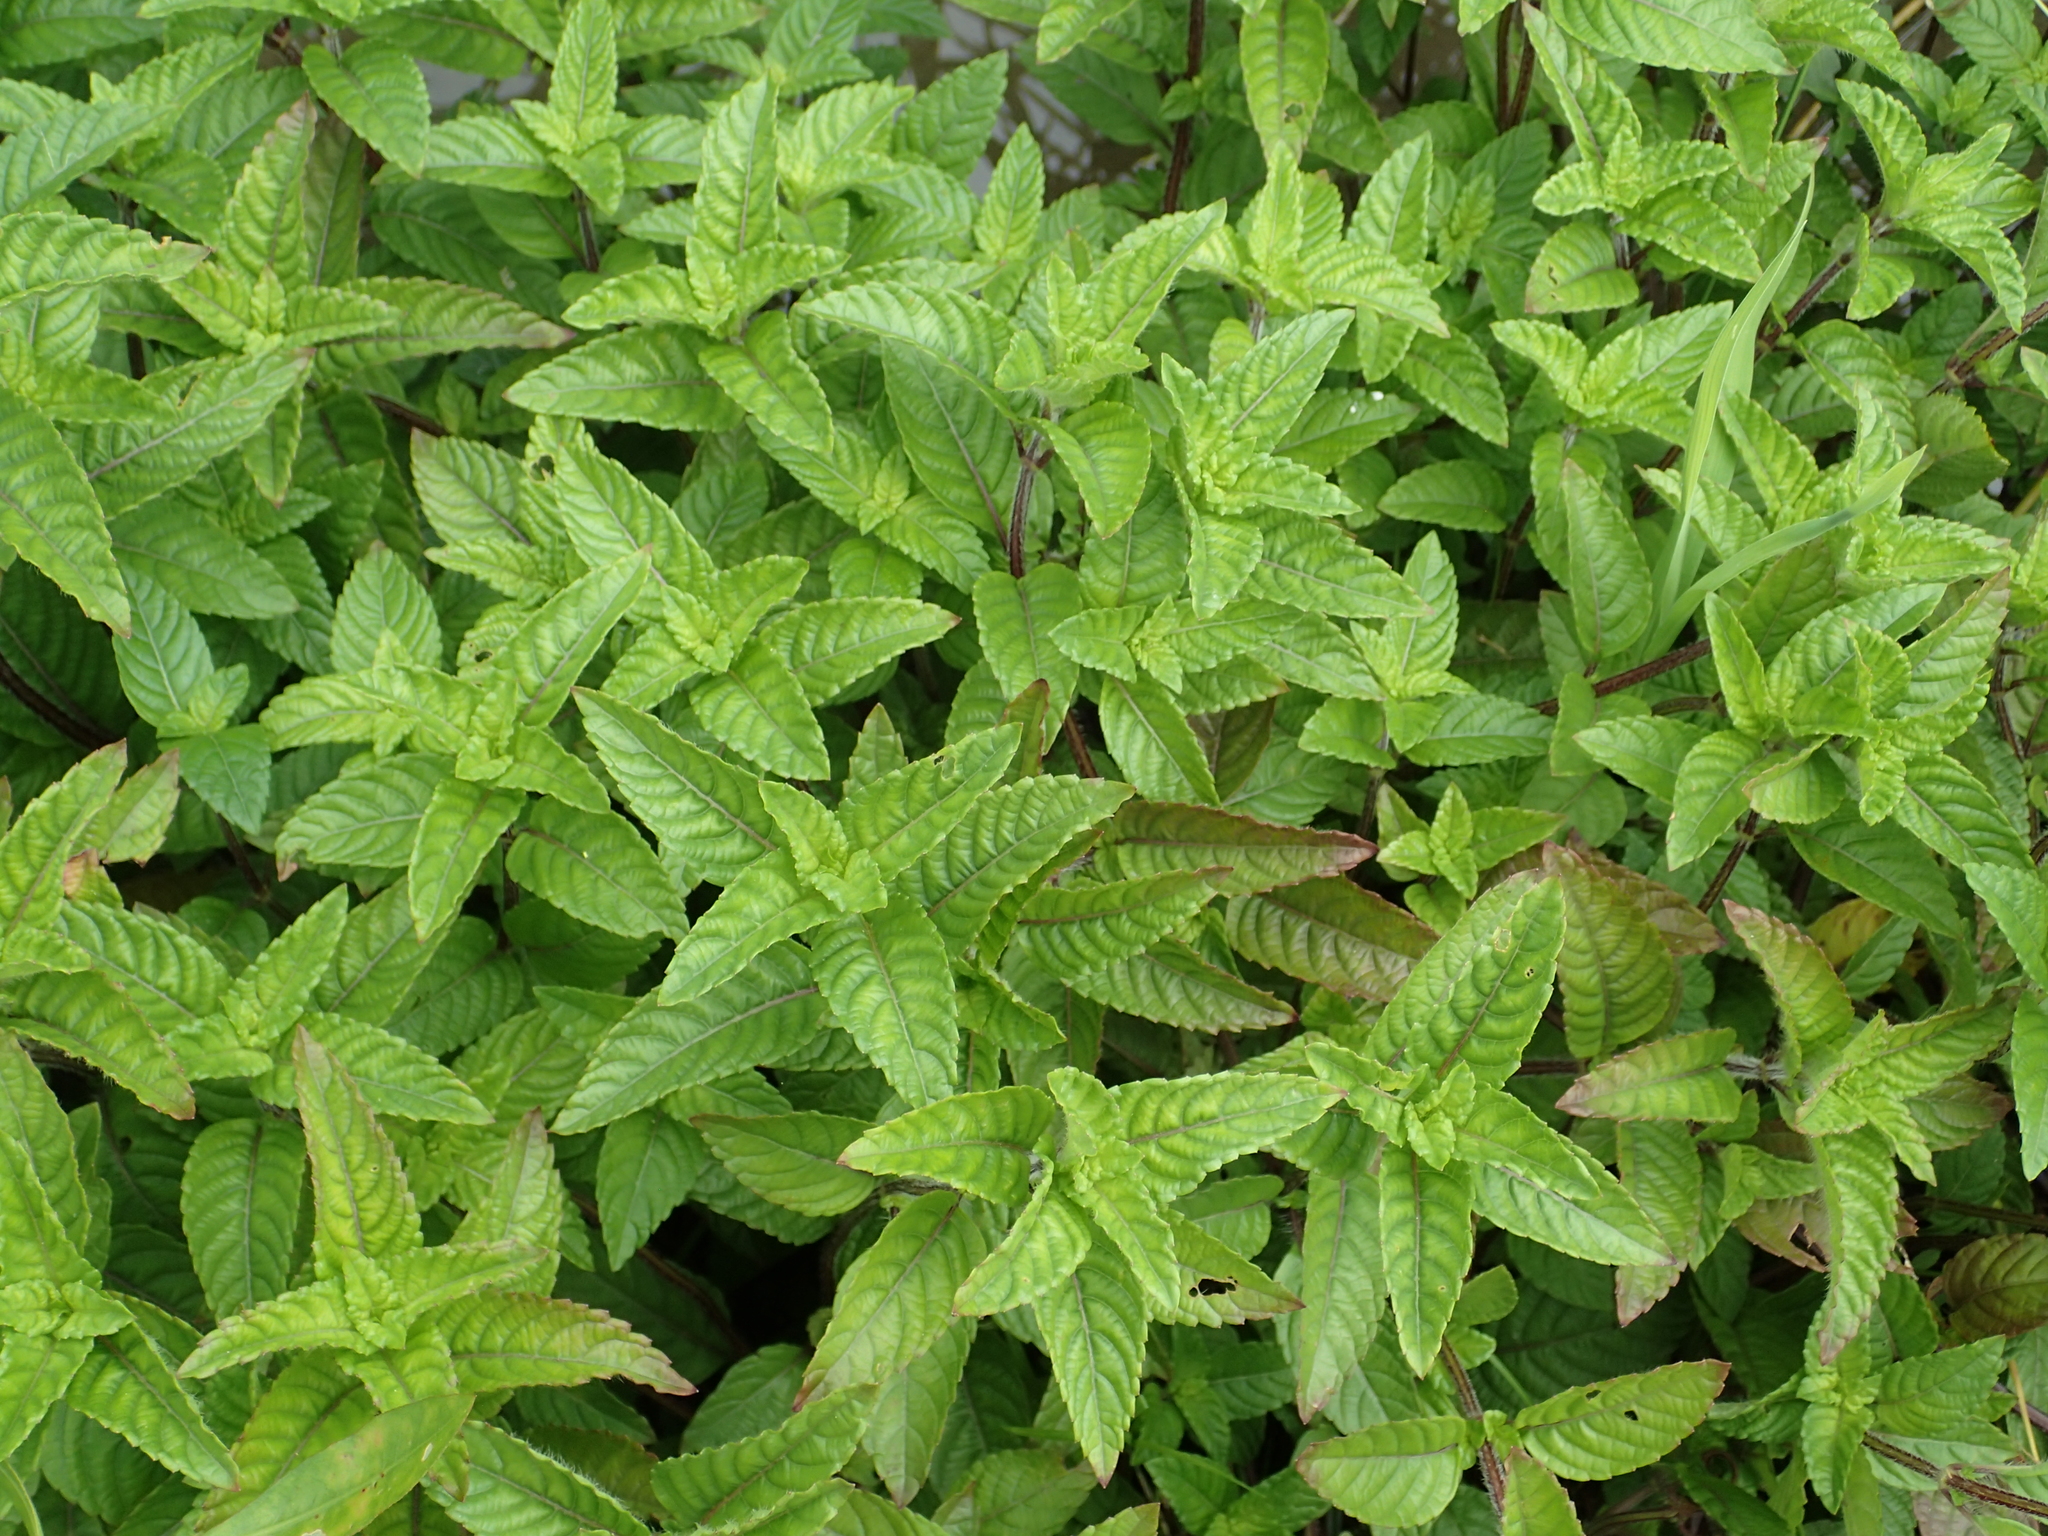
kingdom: Plantae
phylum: Tracheophyta
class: Magnoliopsida
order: Lamiales
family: Lamiaceae
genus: Platostoma
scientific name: Platostoma palustre
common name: Black cincau
